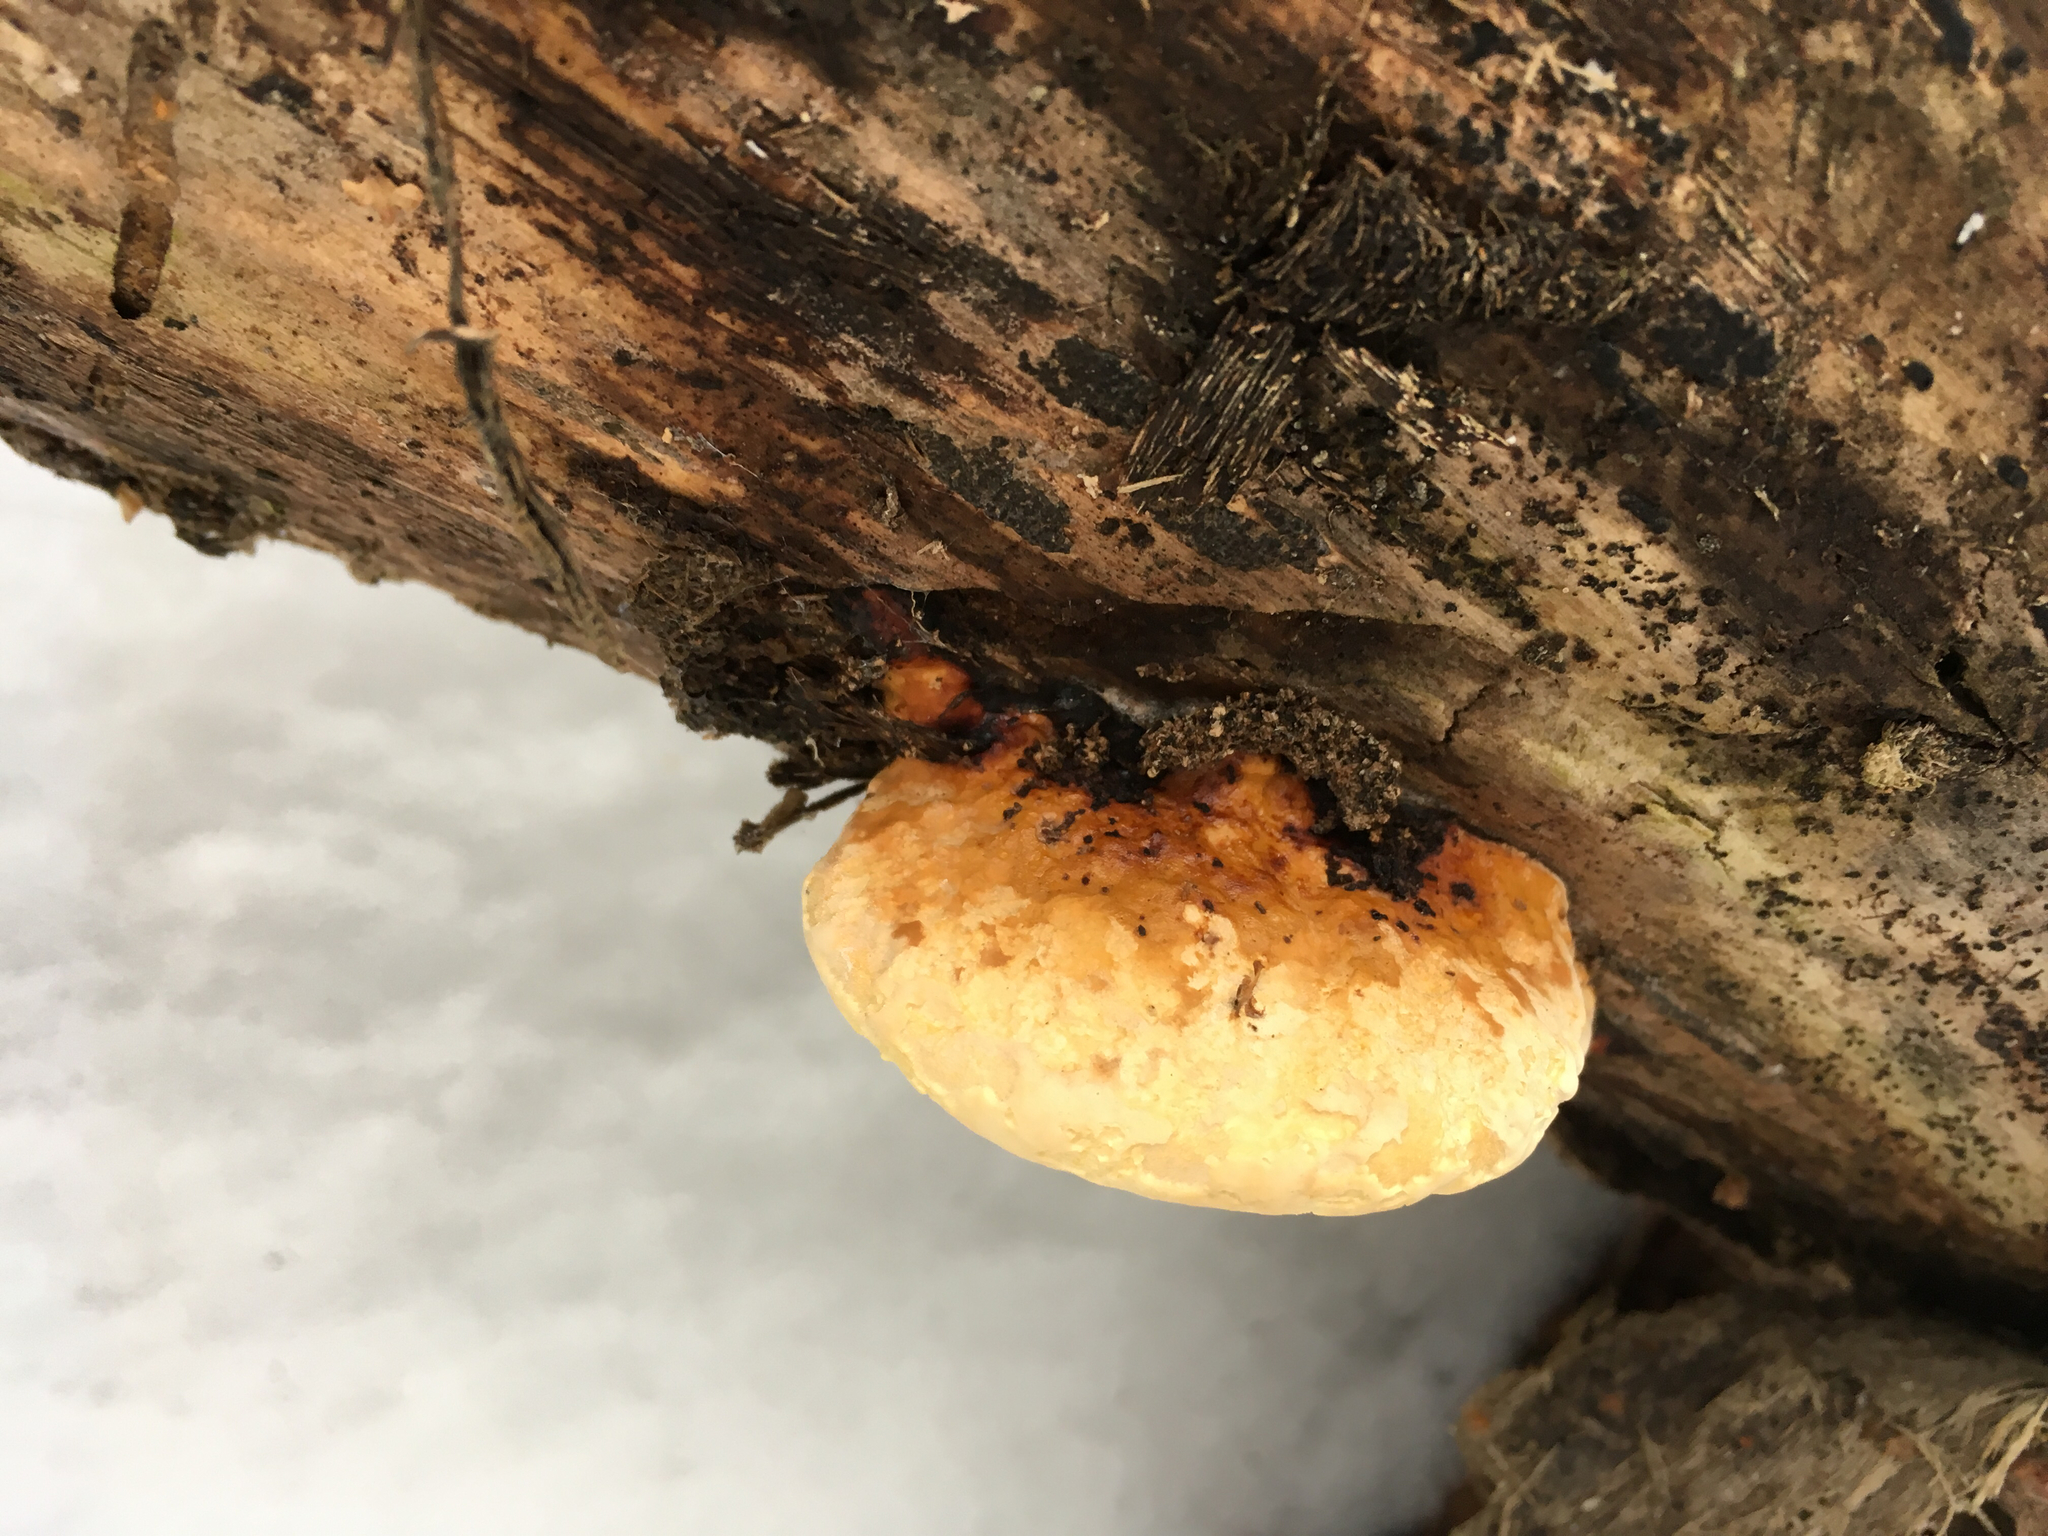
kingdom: Fungi
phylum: Basidiomycota
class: Agaricomycetes
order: Polyporales
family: Fomitopsidaceae
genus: Fomitopsis
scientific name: Fomitopsis pinicola
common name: Red-belted bracket
